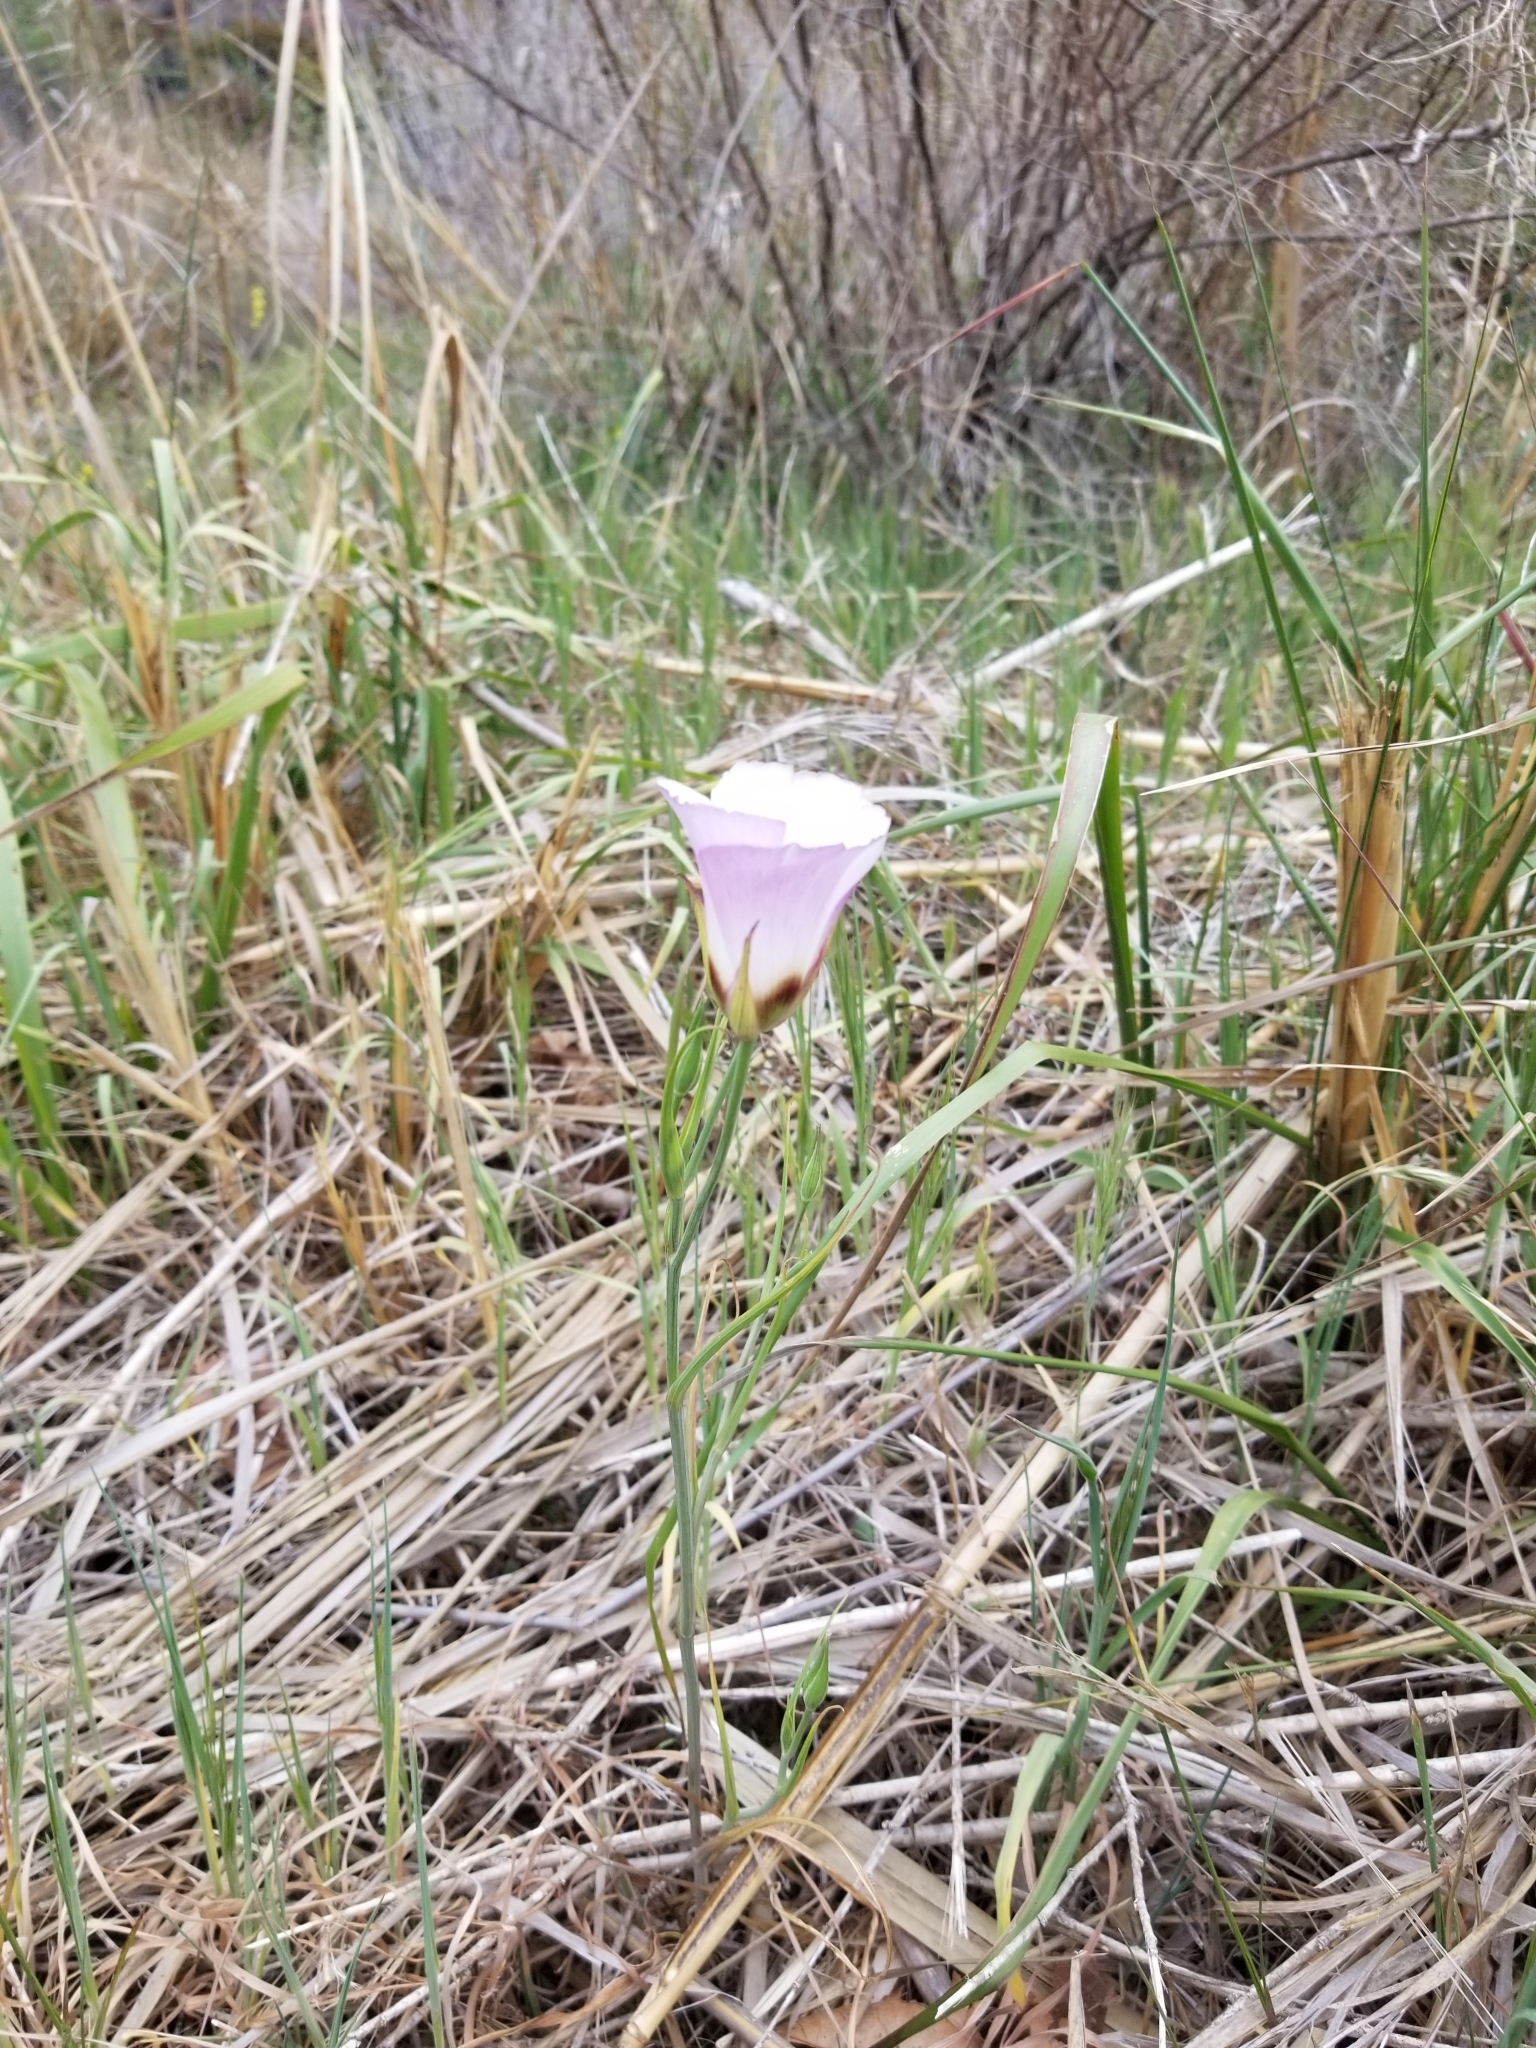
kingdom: Plantae
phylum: Tracheophyta
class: Liliopsida
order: Liliales
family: Liliaceae
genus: Calochortus
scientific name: Calochortus catalinae
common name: Catalina mariposa-lily
